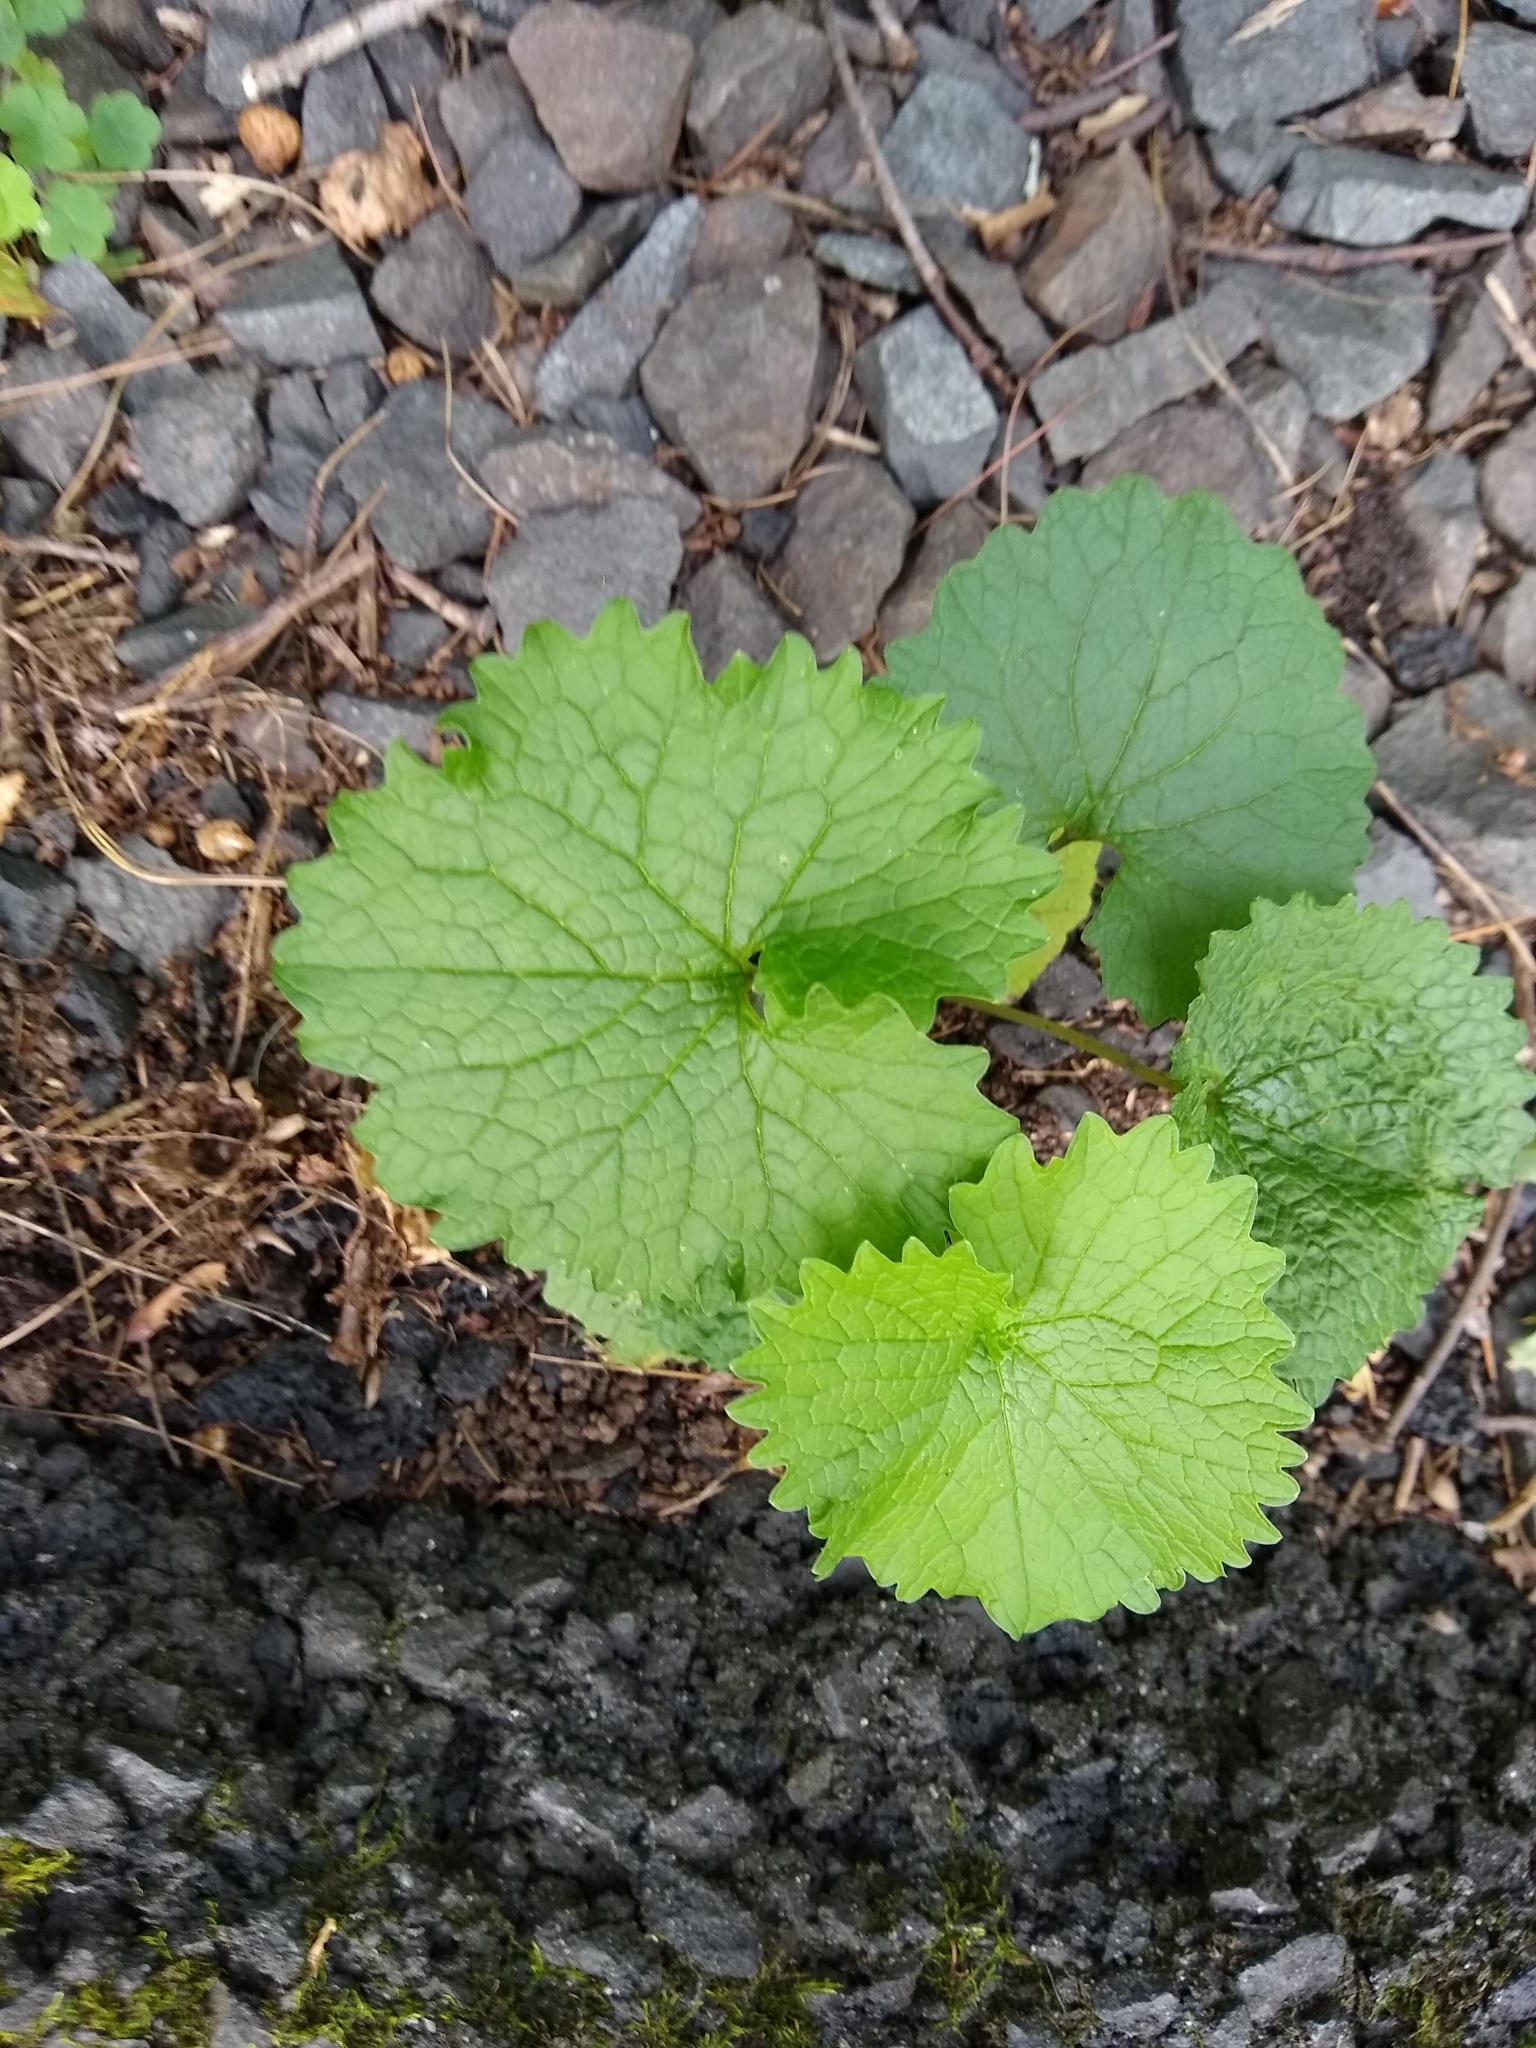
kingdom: Plantae
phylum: Tracheophyta
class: Magnoliopsida
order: Brassicales
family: Brassicaceae
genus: Alliaria
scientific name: Alliaria petiolata
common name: Garlic mustard
